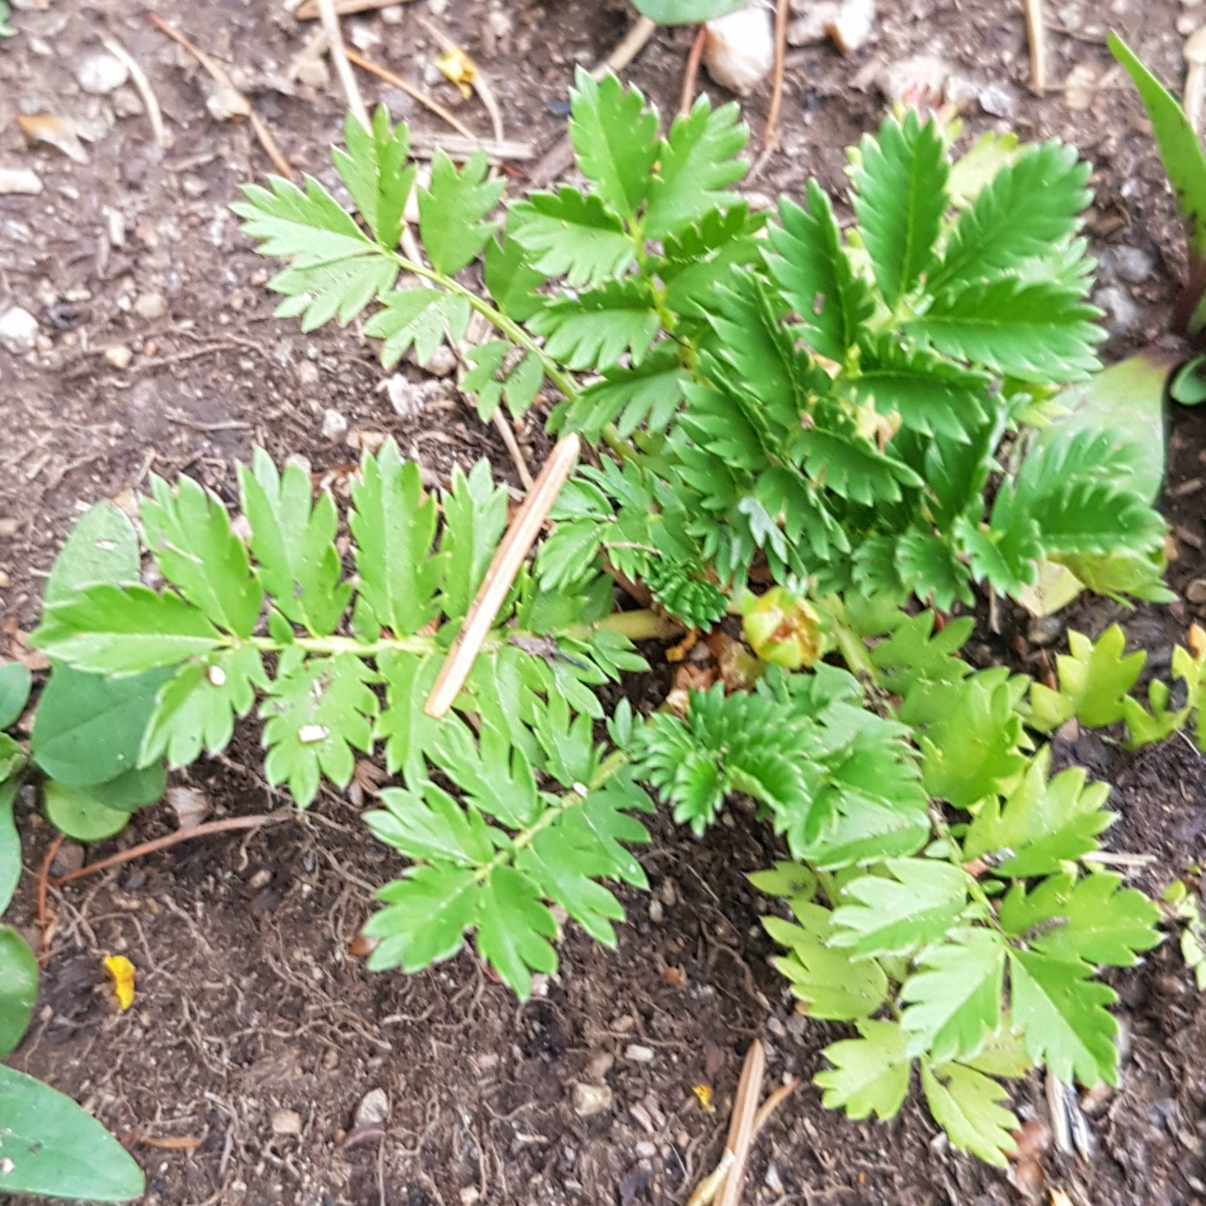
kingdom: Plantae
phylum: Tracheophyta
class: Magnoliopsida
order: Rosales
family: Rosaceae
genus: Argentina
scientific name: Argentina anserina
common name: Common silverweed
